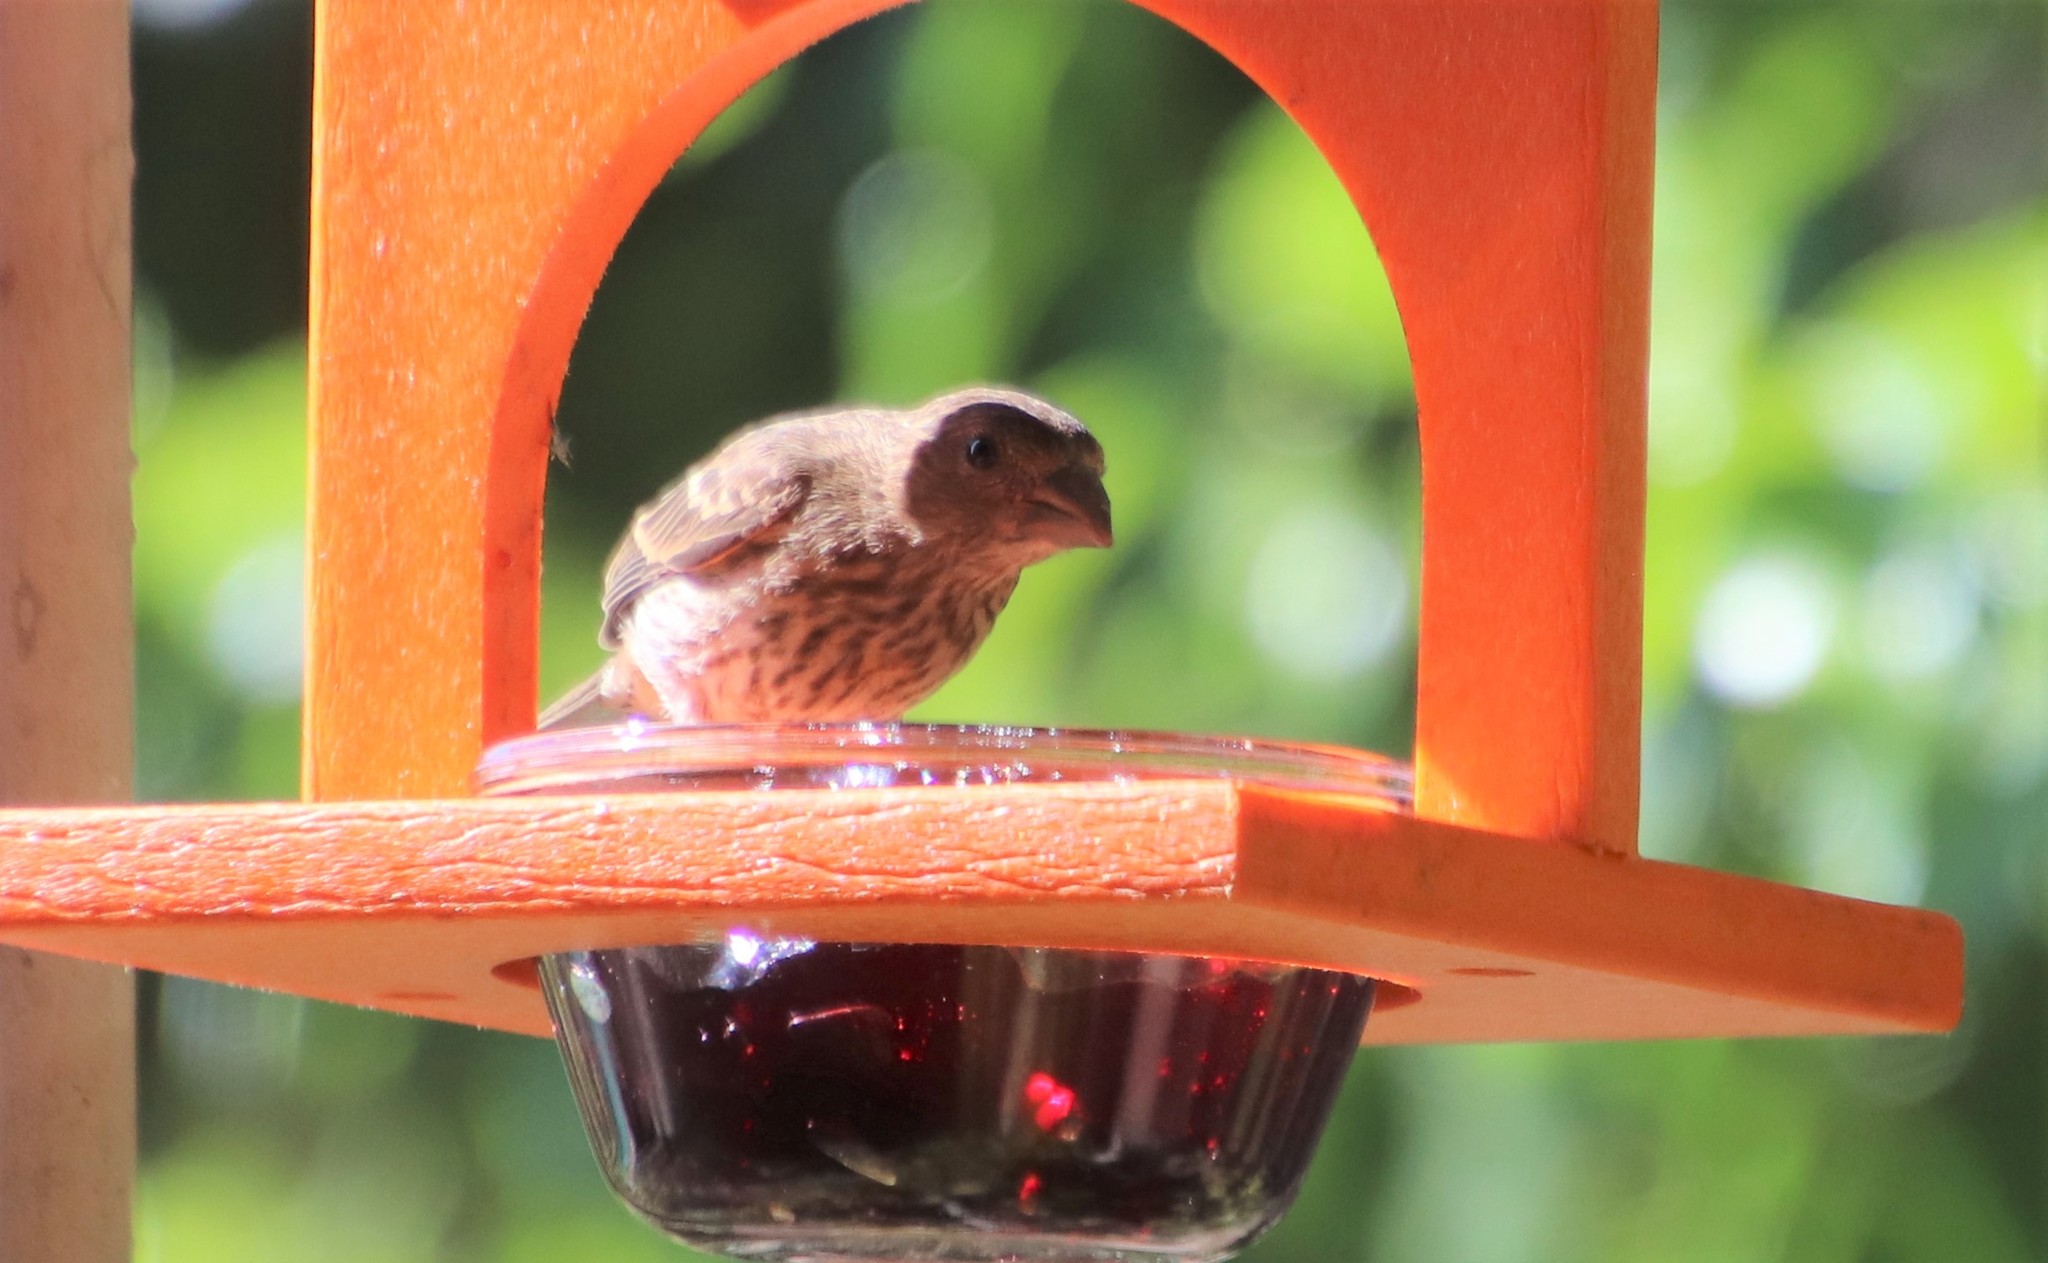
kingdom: Animalia
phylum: Chordata
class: Aves
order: Passeriformes
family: Fringillidae
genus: Haemorhous
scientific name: Haemorhous mexicanus
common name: House finch
